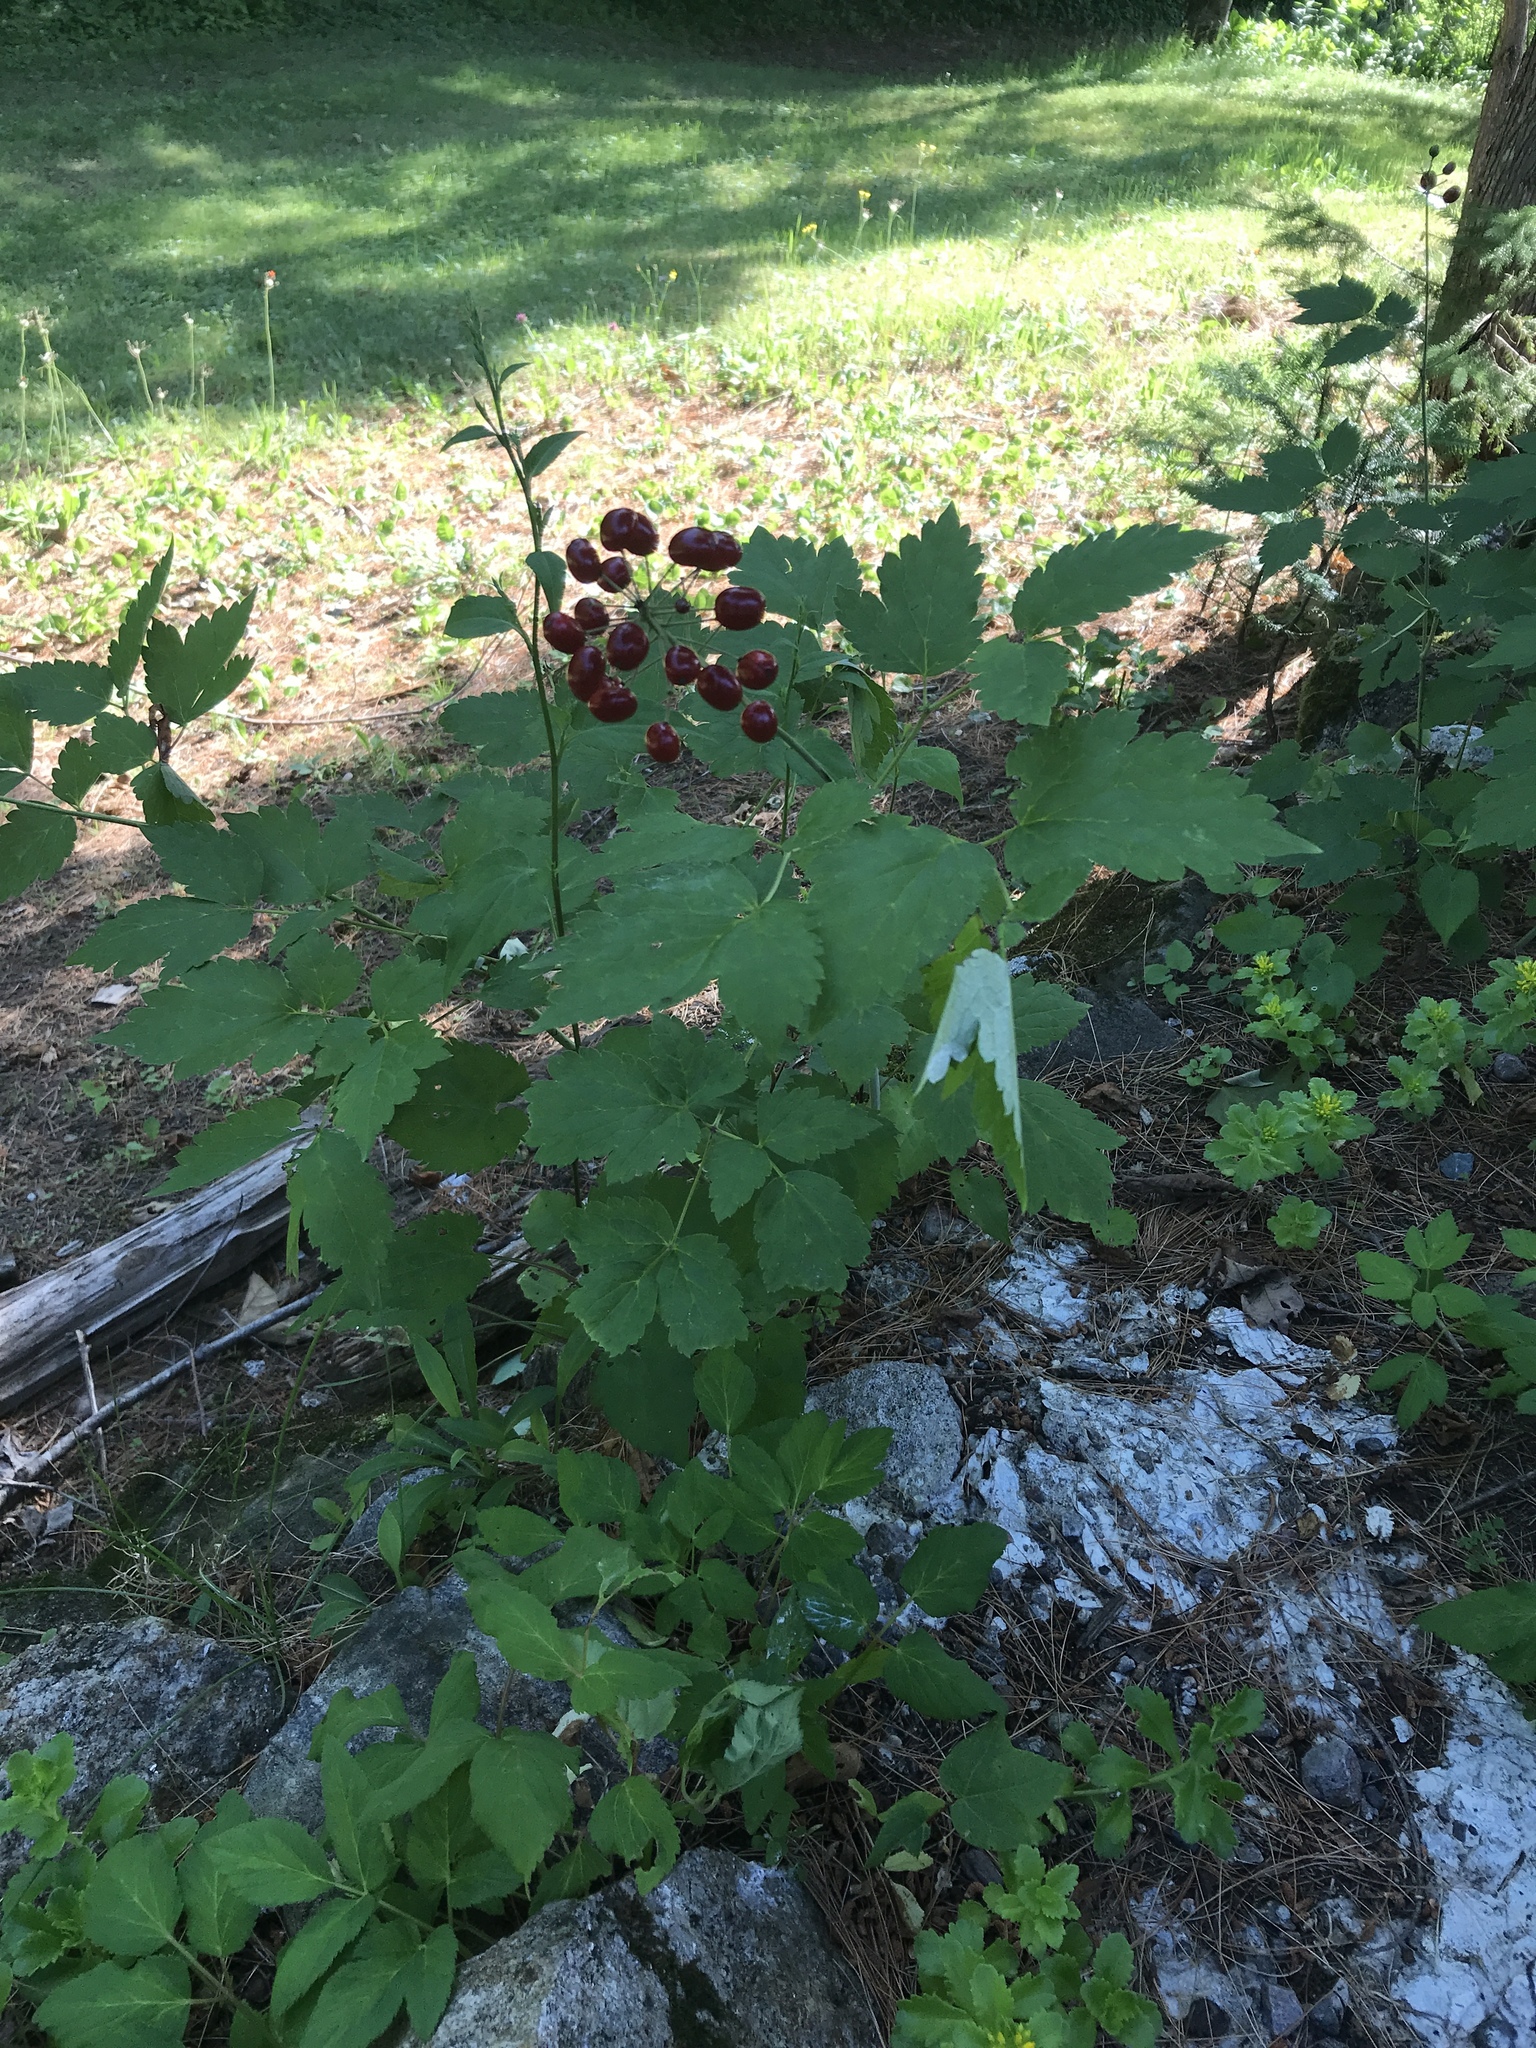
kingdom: Plantae
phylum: Tracheophyta
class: Magnoliopsida
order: Ranunculales
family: Ranunculaceae
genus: Actaea
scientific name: Actaea rubra
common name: Red baneberry
